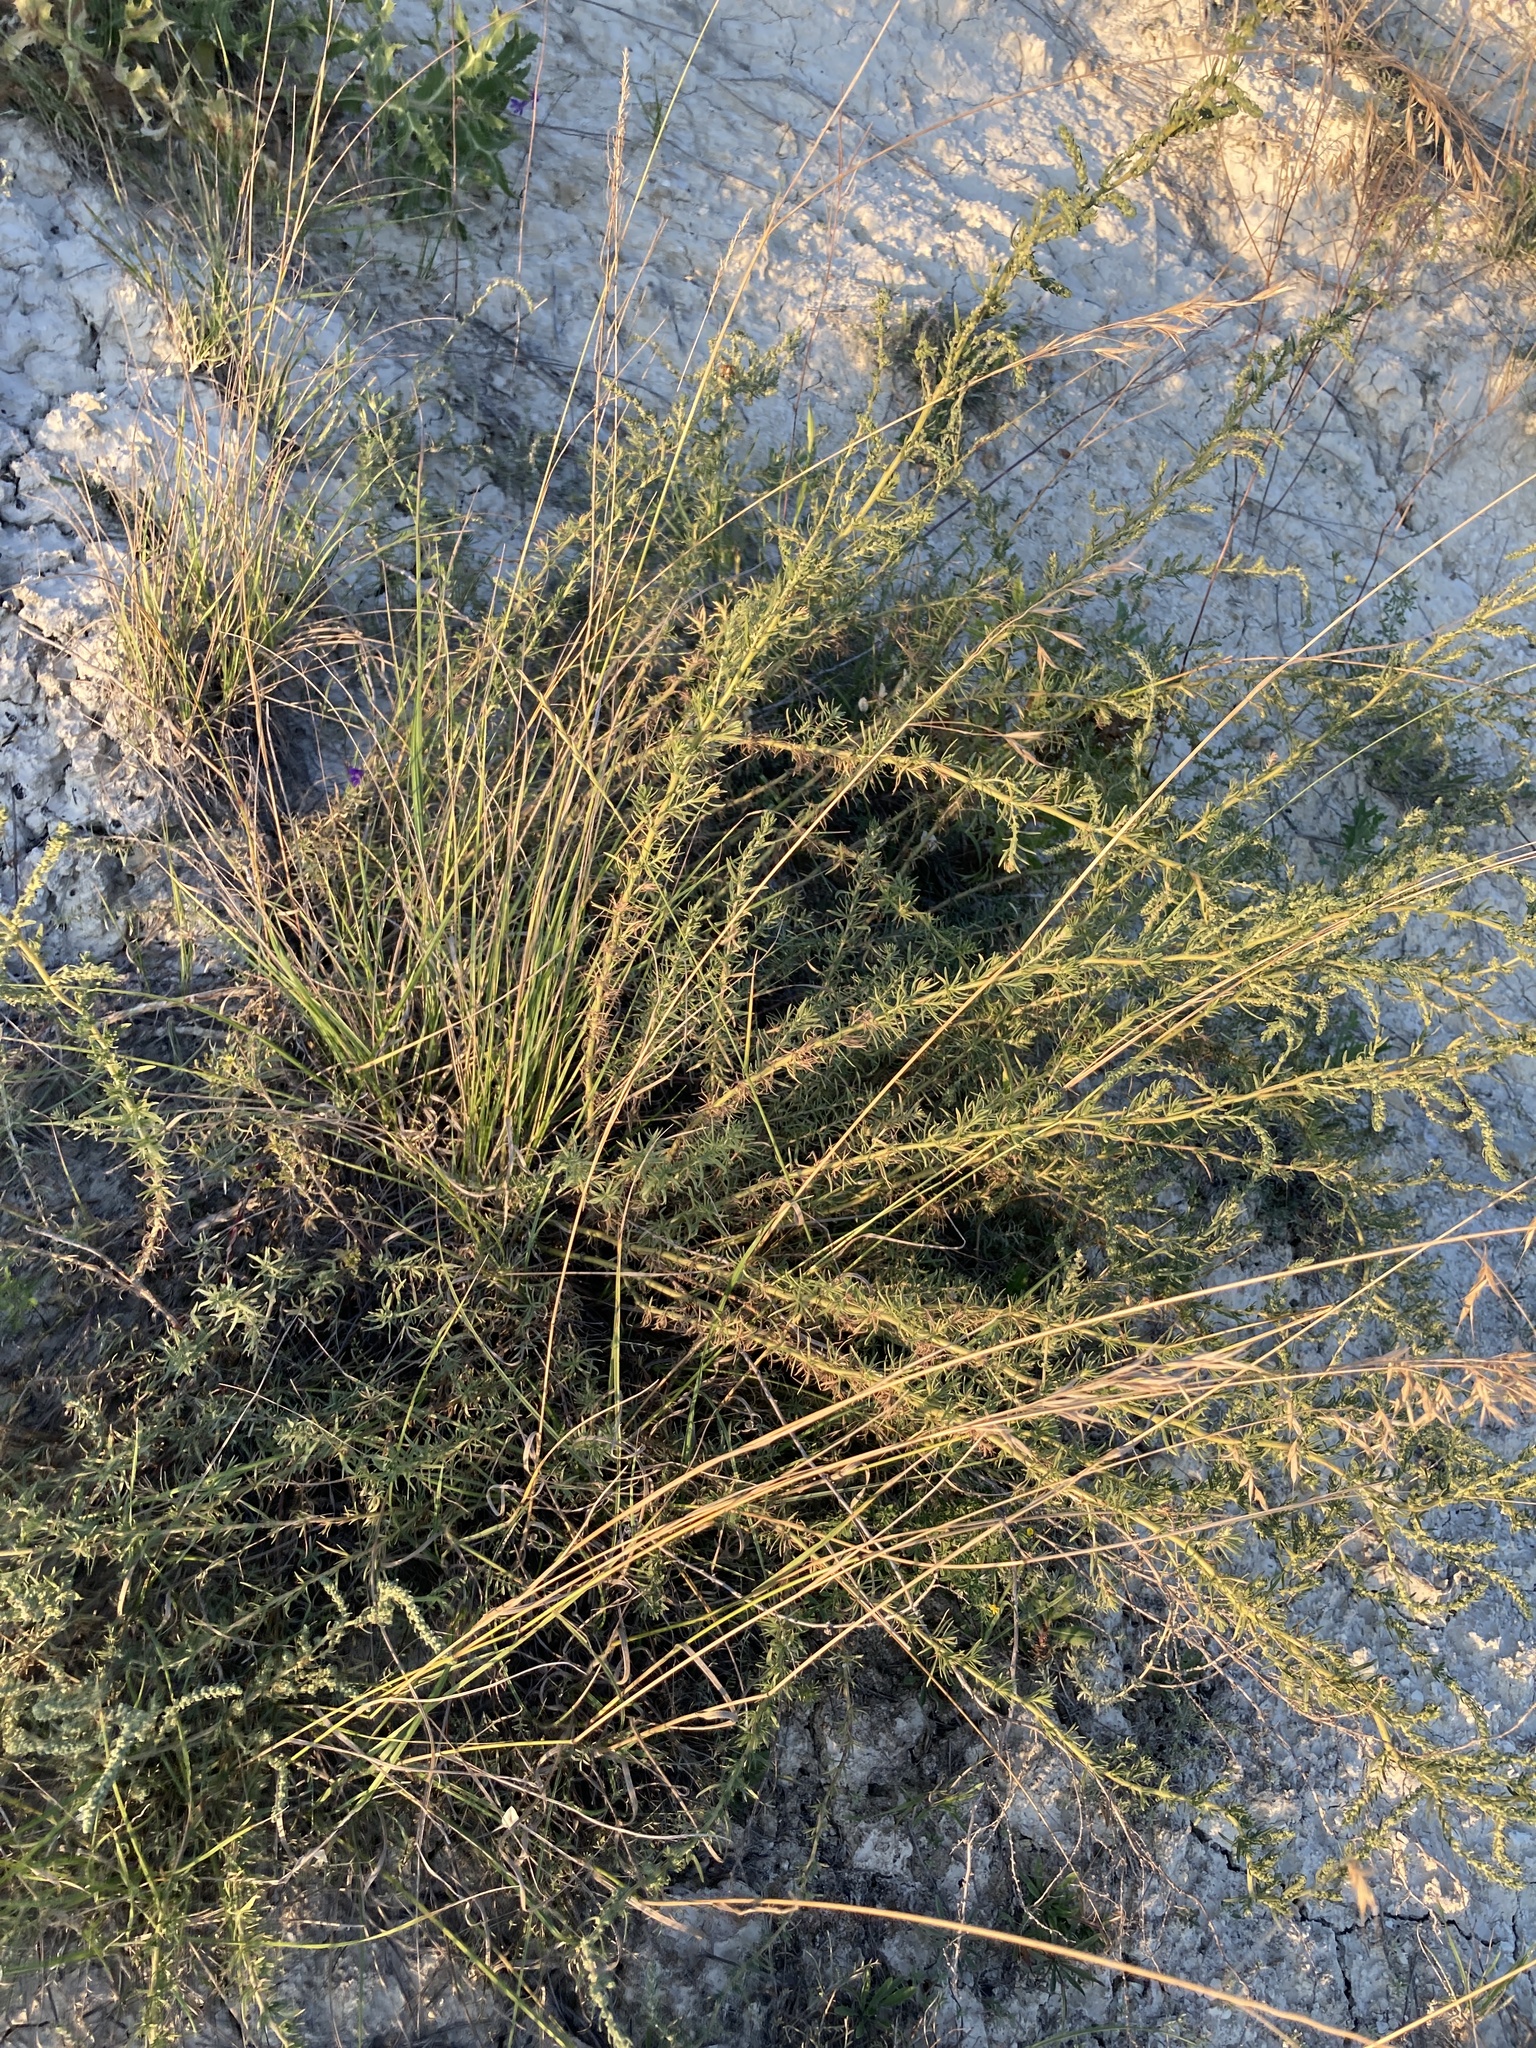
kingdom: Plantae
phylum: Tracheophyta
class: Magnoliopsida
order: Caryophyllales
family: Amaranthaceae
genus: Bassia
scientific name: Bassia prostrata
